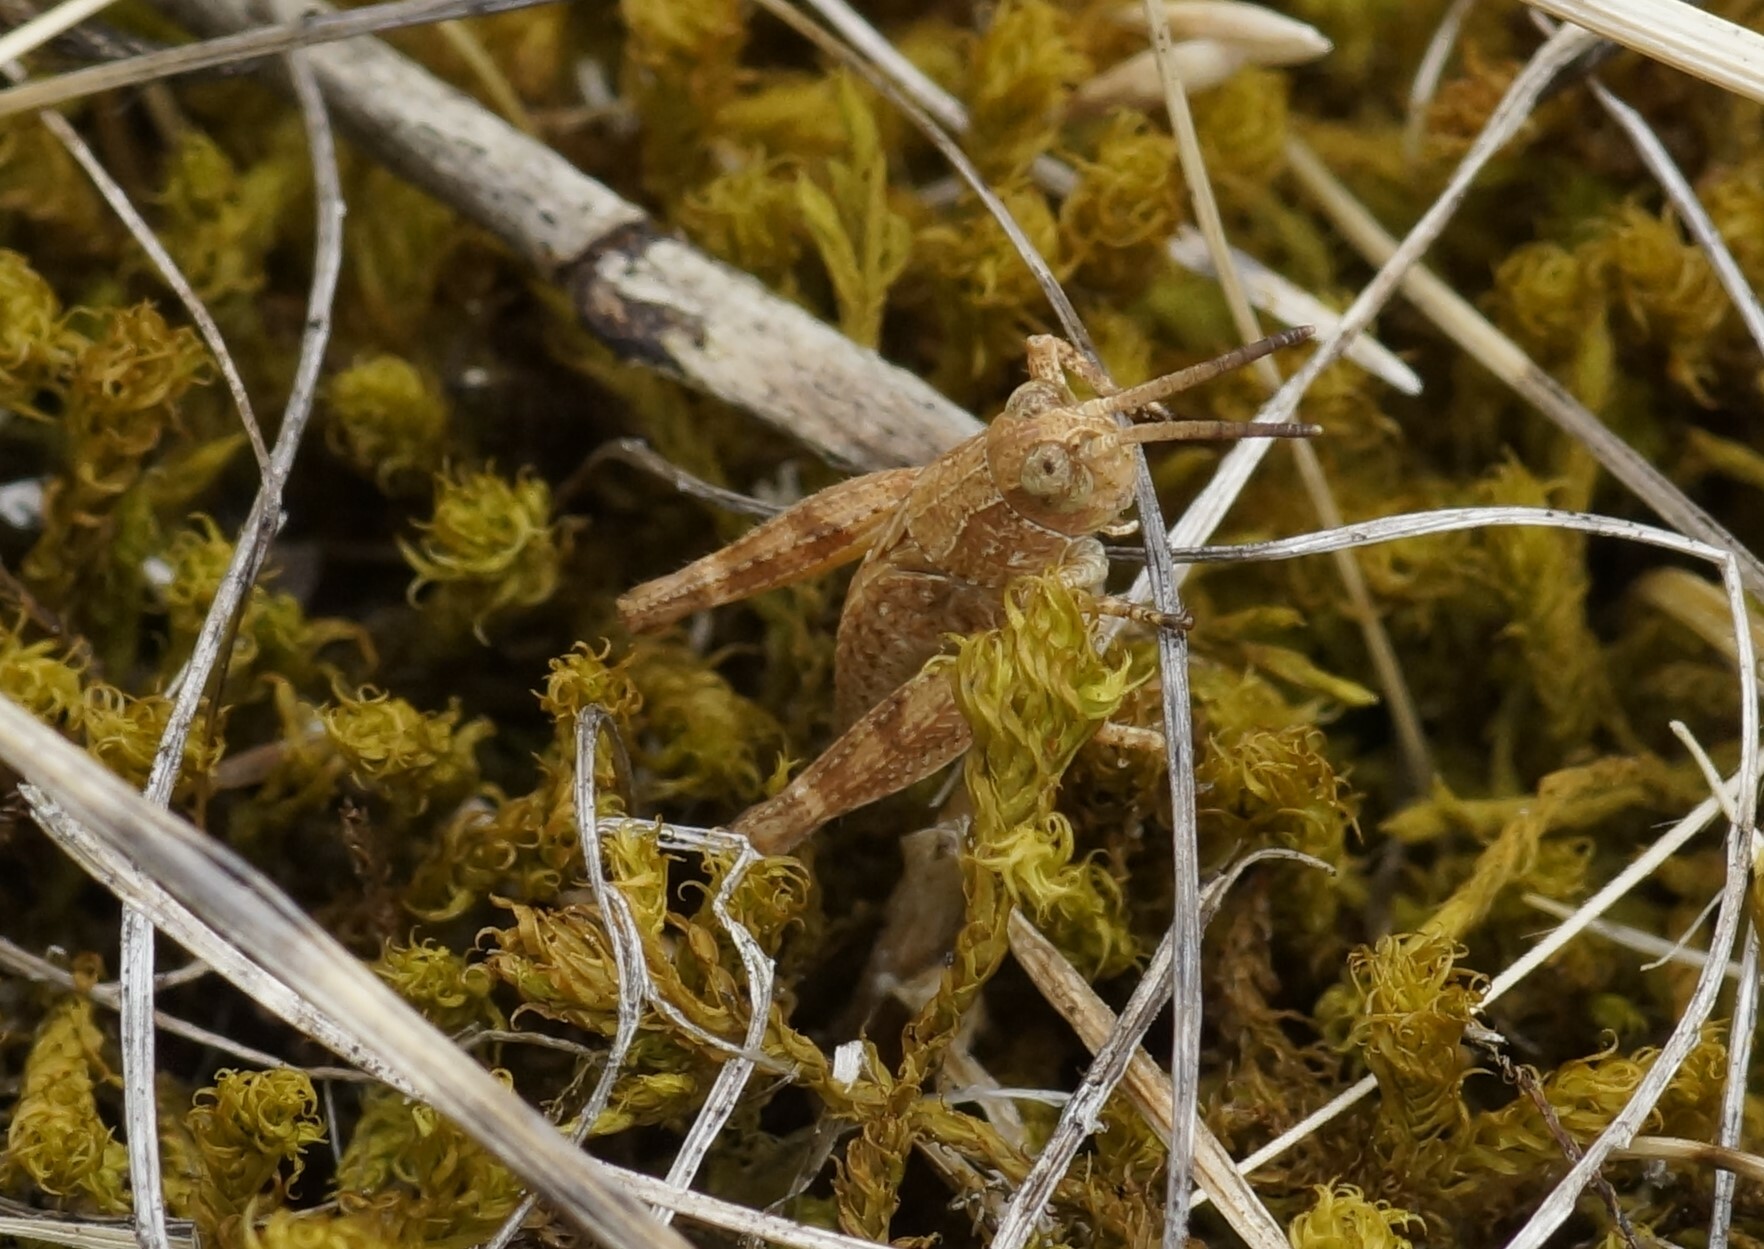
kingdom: Animalia
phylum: Arthropoda
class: Insecta
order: Orthoptera
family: Acrididae
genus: Phaulacridium
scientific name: Phaulacridium vittatum
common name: Wingless grasshopper
